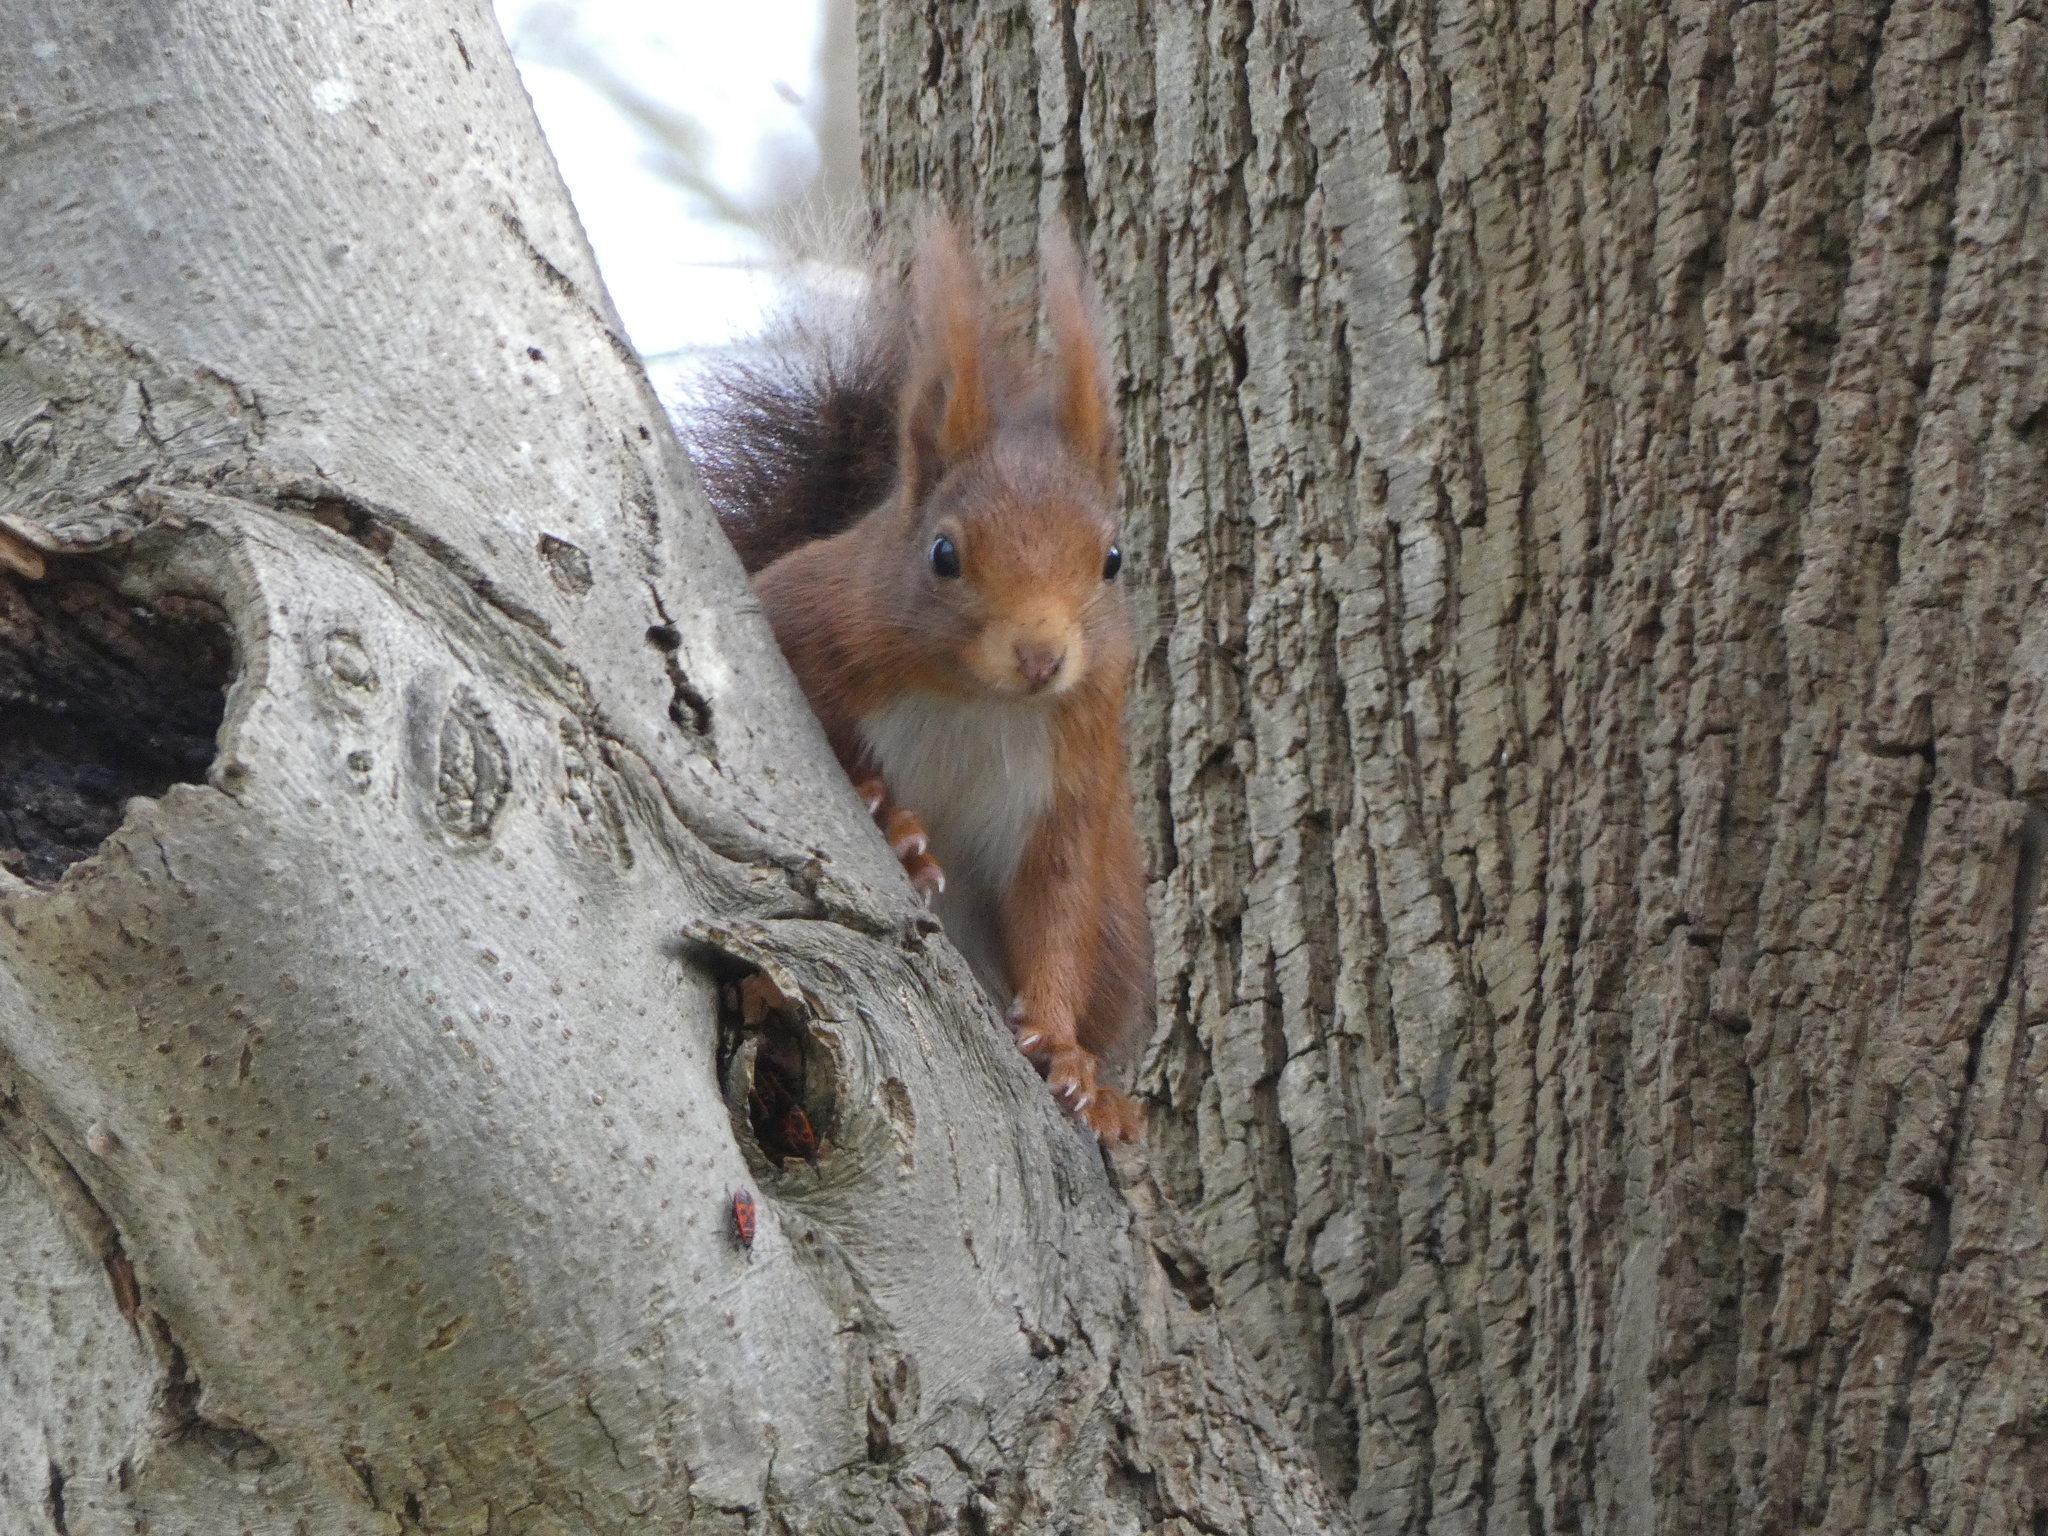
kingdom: Animalia
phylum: Chordata
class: Mammalia
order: Rodentia
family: Sciuridae
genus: Sciurus
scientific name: Sciurus vulgaris
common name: Eurasian red squirrel
